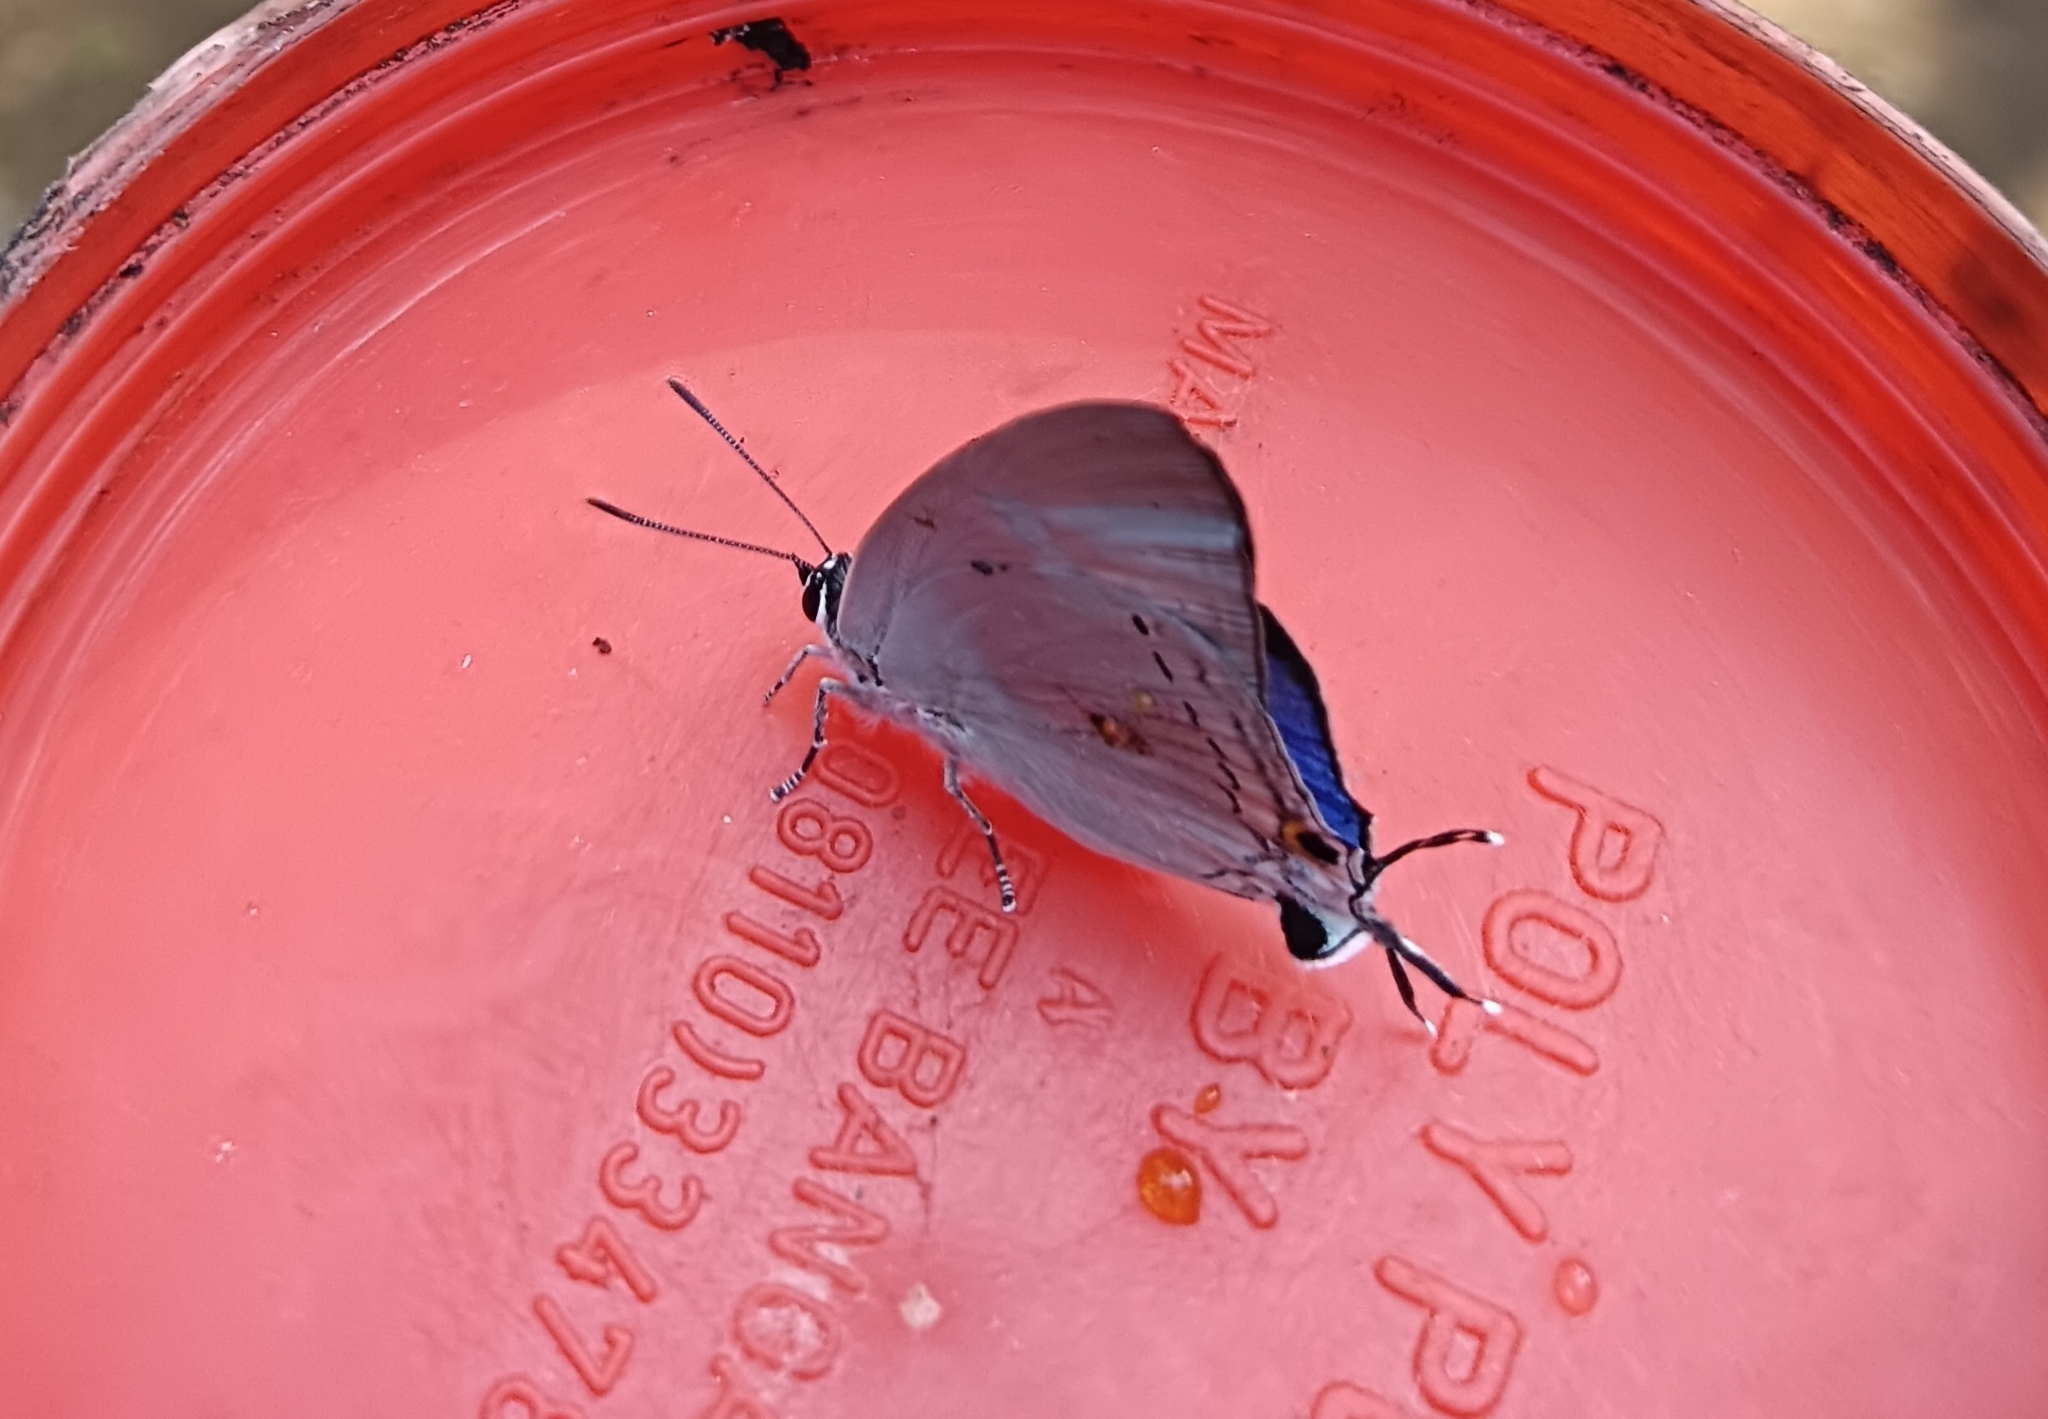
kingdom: Animalia
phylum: Arthropoda
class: Insecta
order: Lepidoptera
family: Lycaenidae
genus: Tajuria
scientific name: Tajuria cippus
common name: Peacock royal
